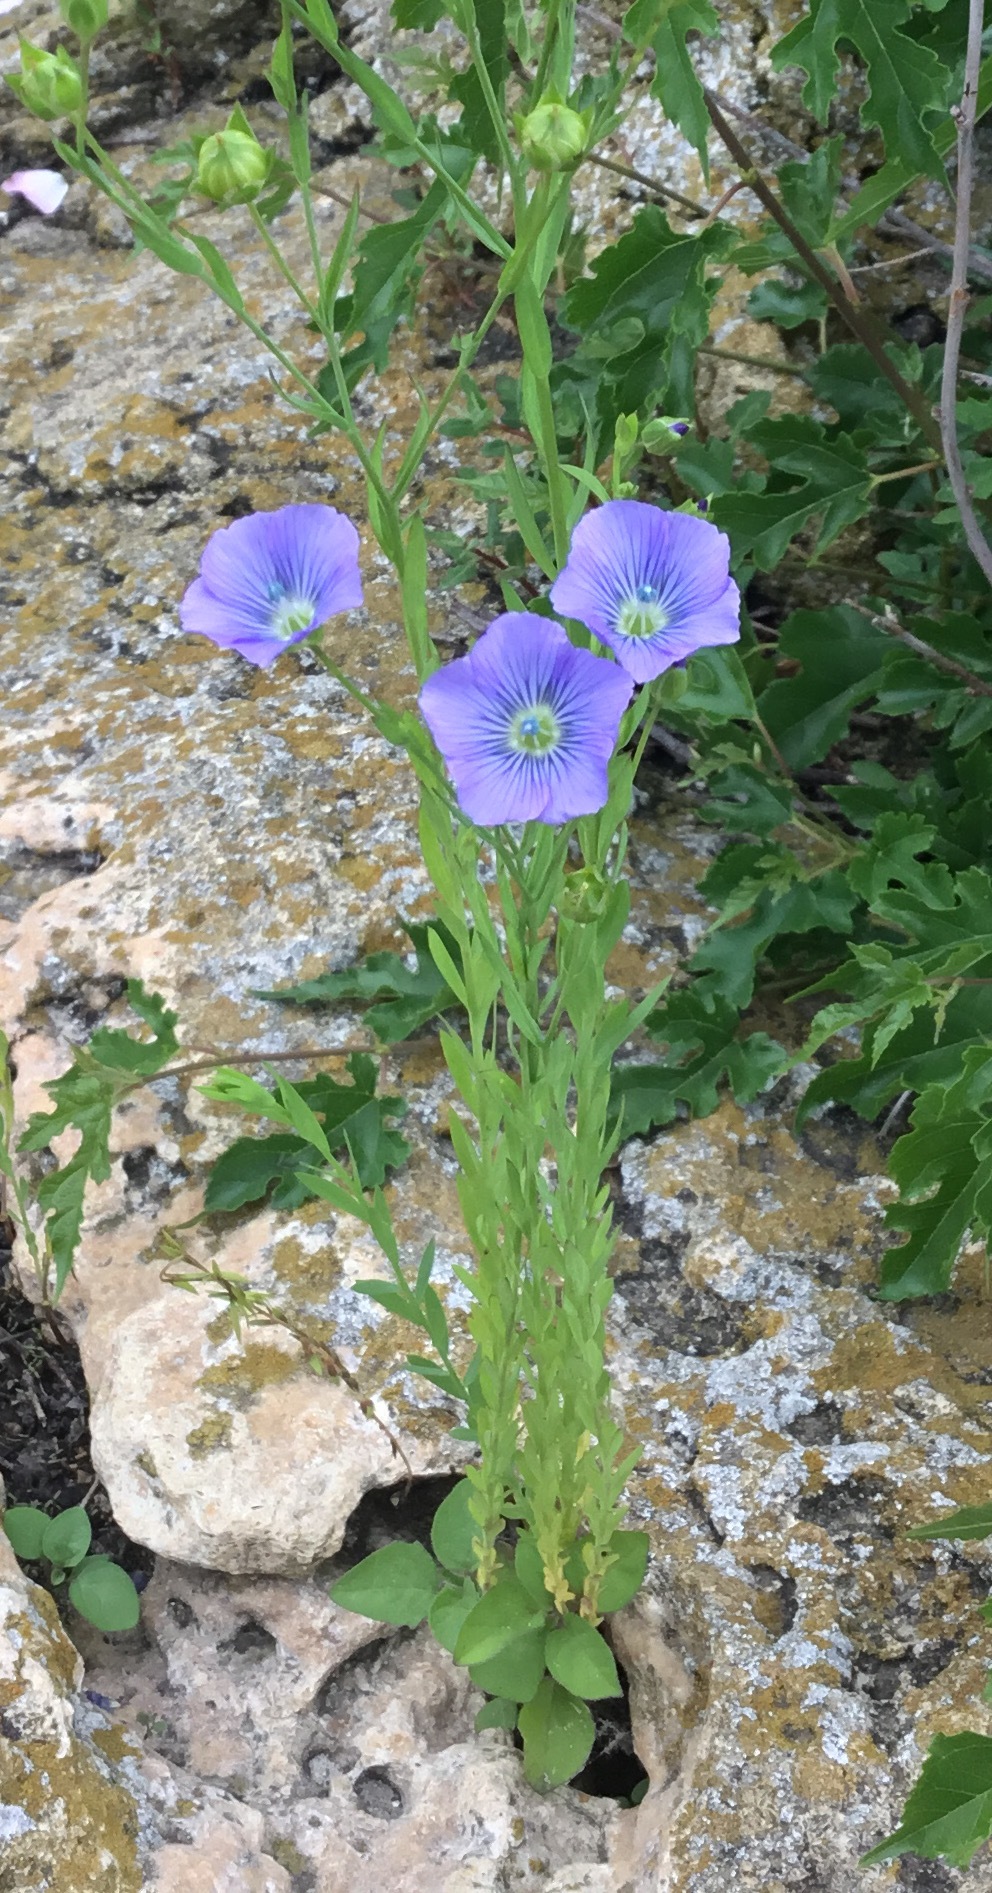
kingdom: Plantae
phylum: Tracheophyta
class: Magnoliopsida
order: Malpighiales
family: Linaceae
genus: Linum
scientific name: Linum usitatissimum
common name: Flax
